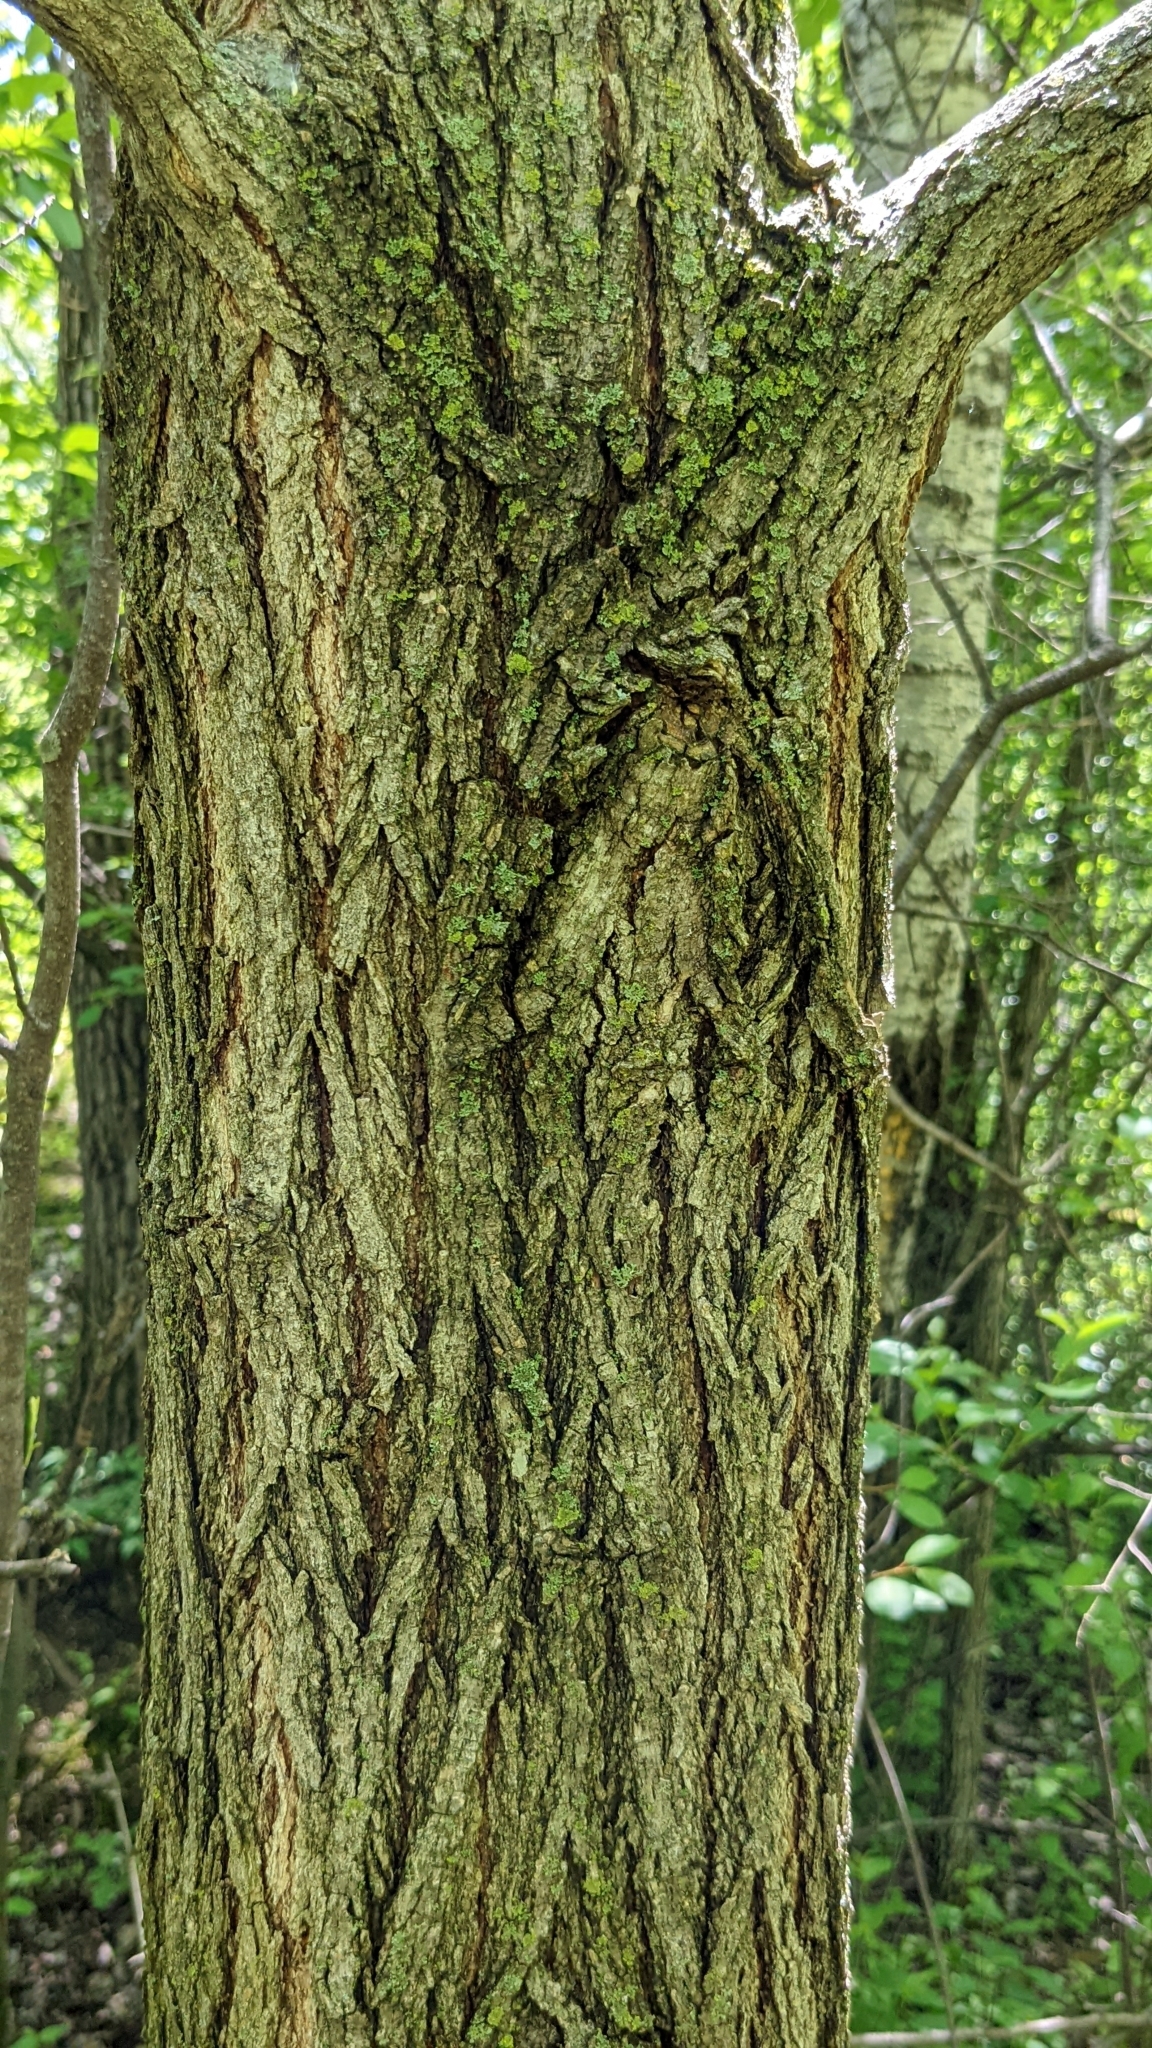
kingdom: Plantae
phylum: Tracheophyta
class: Magnoliopsida
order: Fabales
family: Fabaceae
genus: Robinia
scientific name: Robinia pseudoacacia
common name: Black locust
